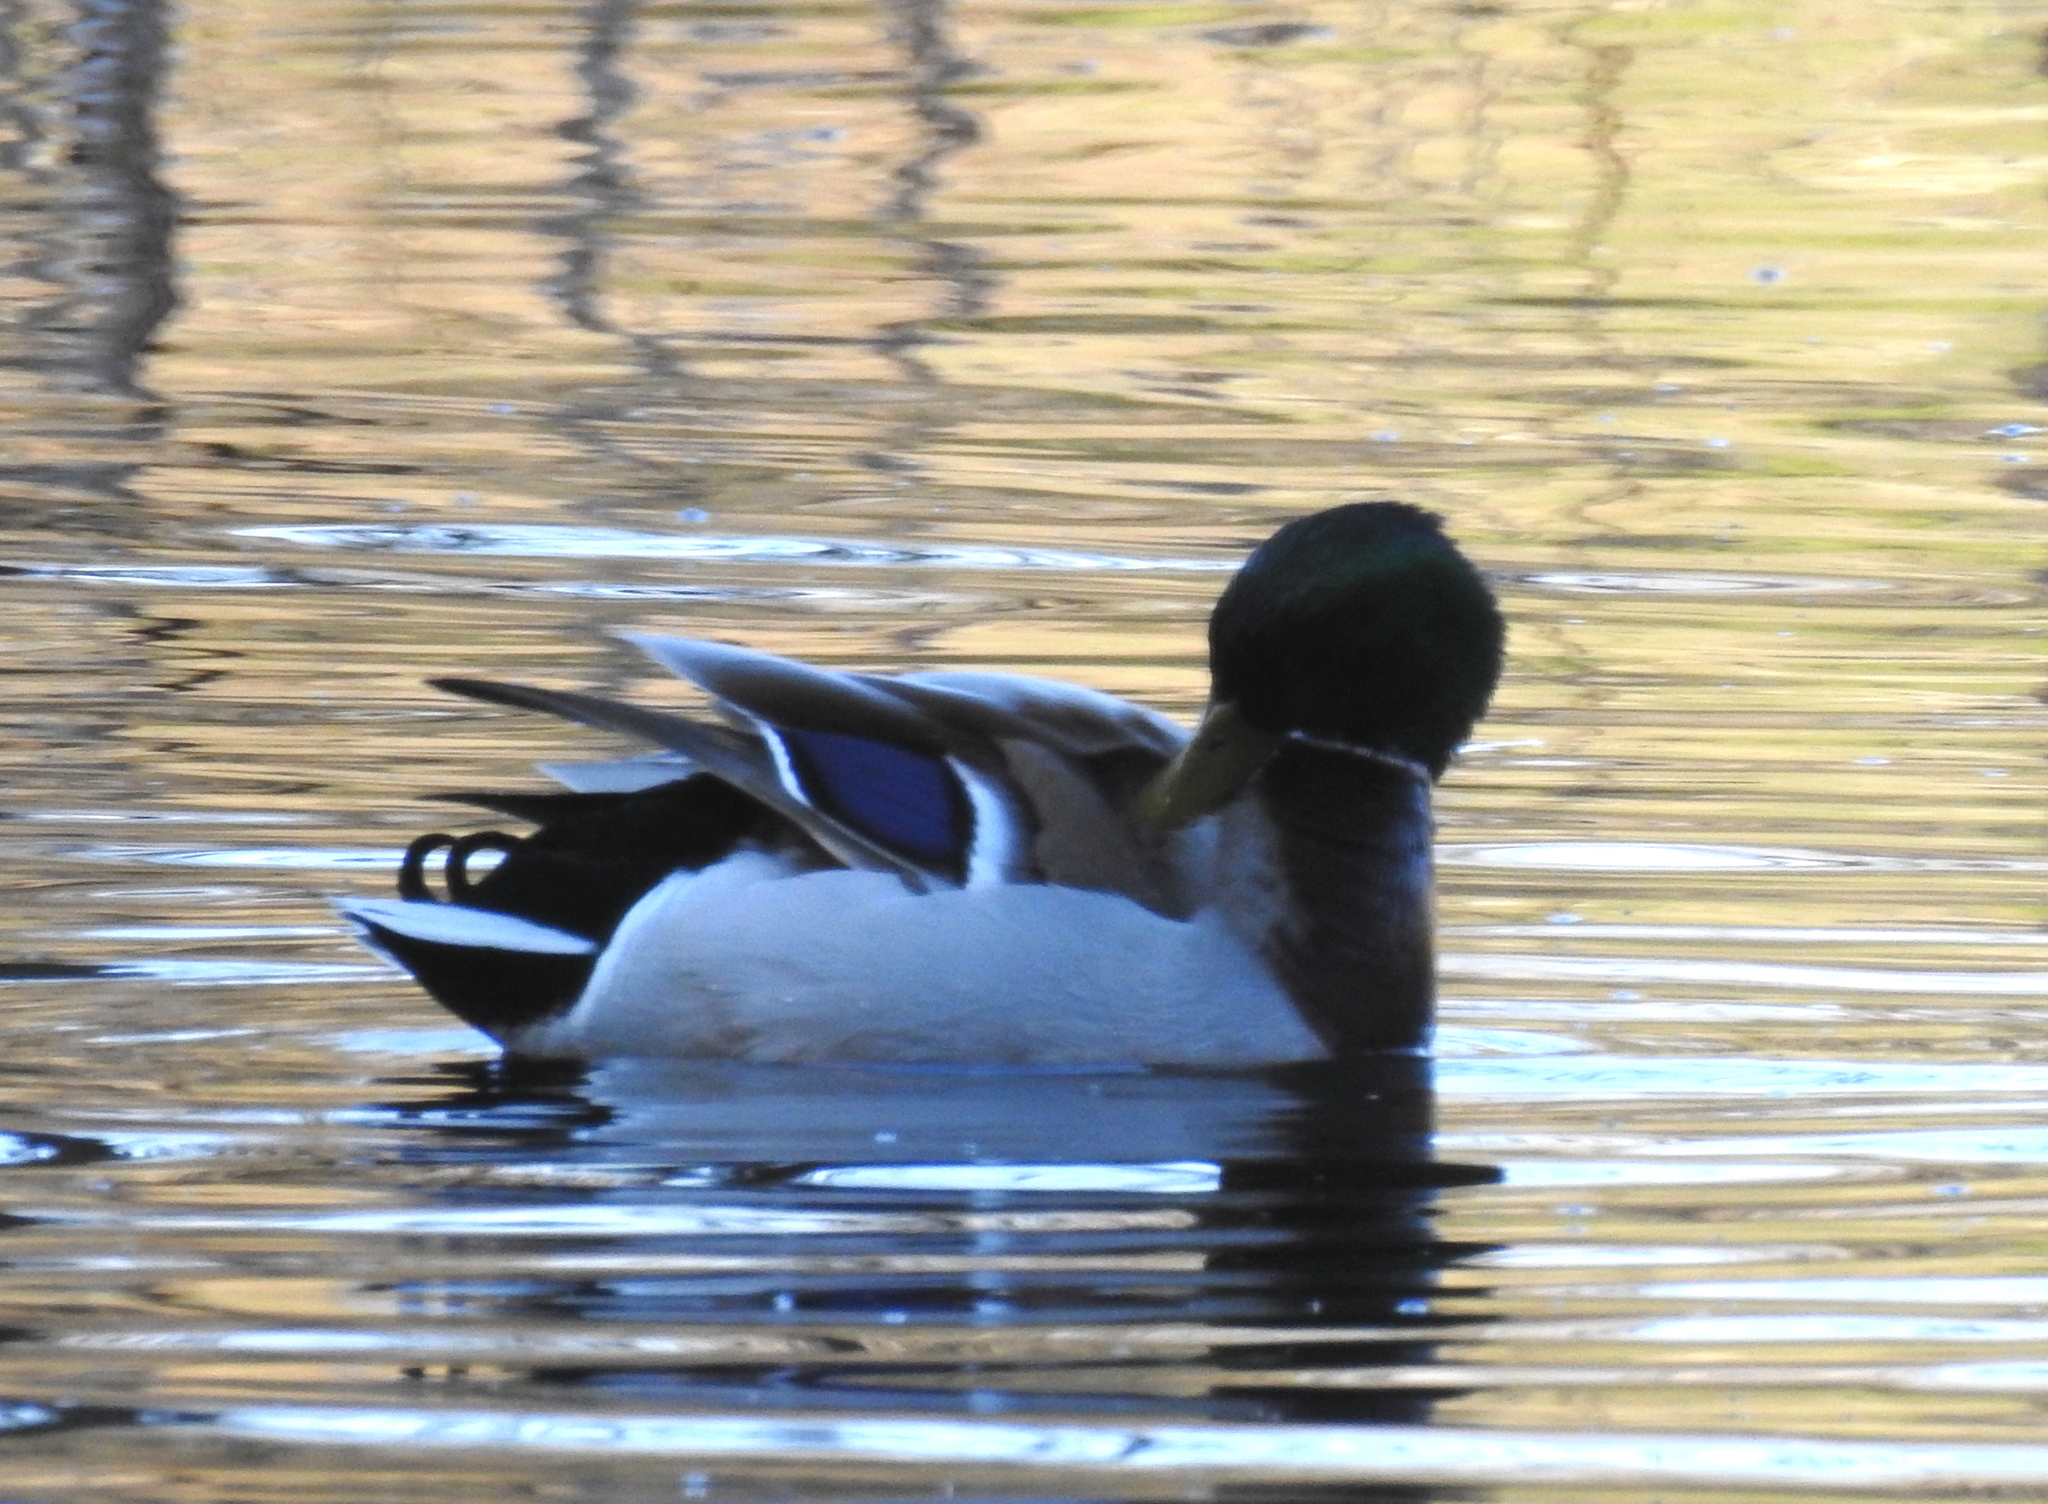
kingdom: Animalia
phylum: Chordata
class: Aves
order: Anseriformes
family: Anatidae
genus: Anas
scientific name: Anas platyrhynchos
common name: Mallard
